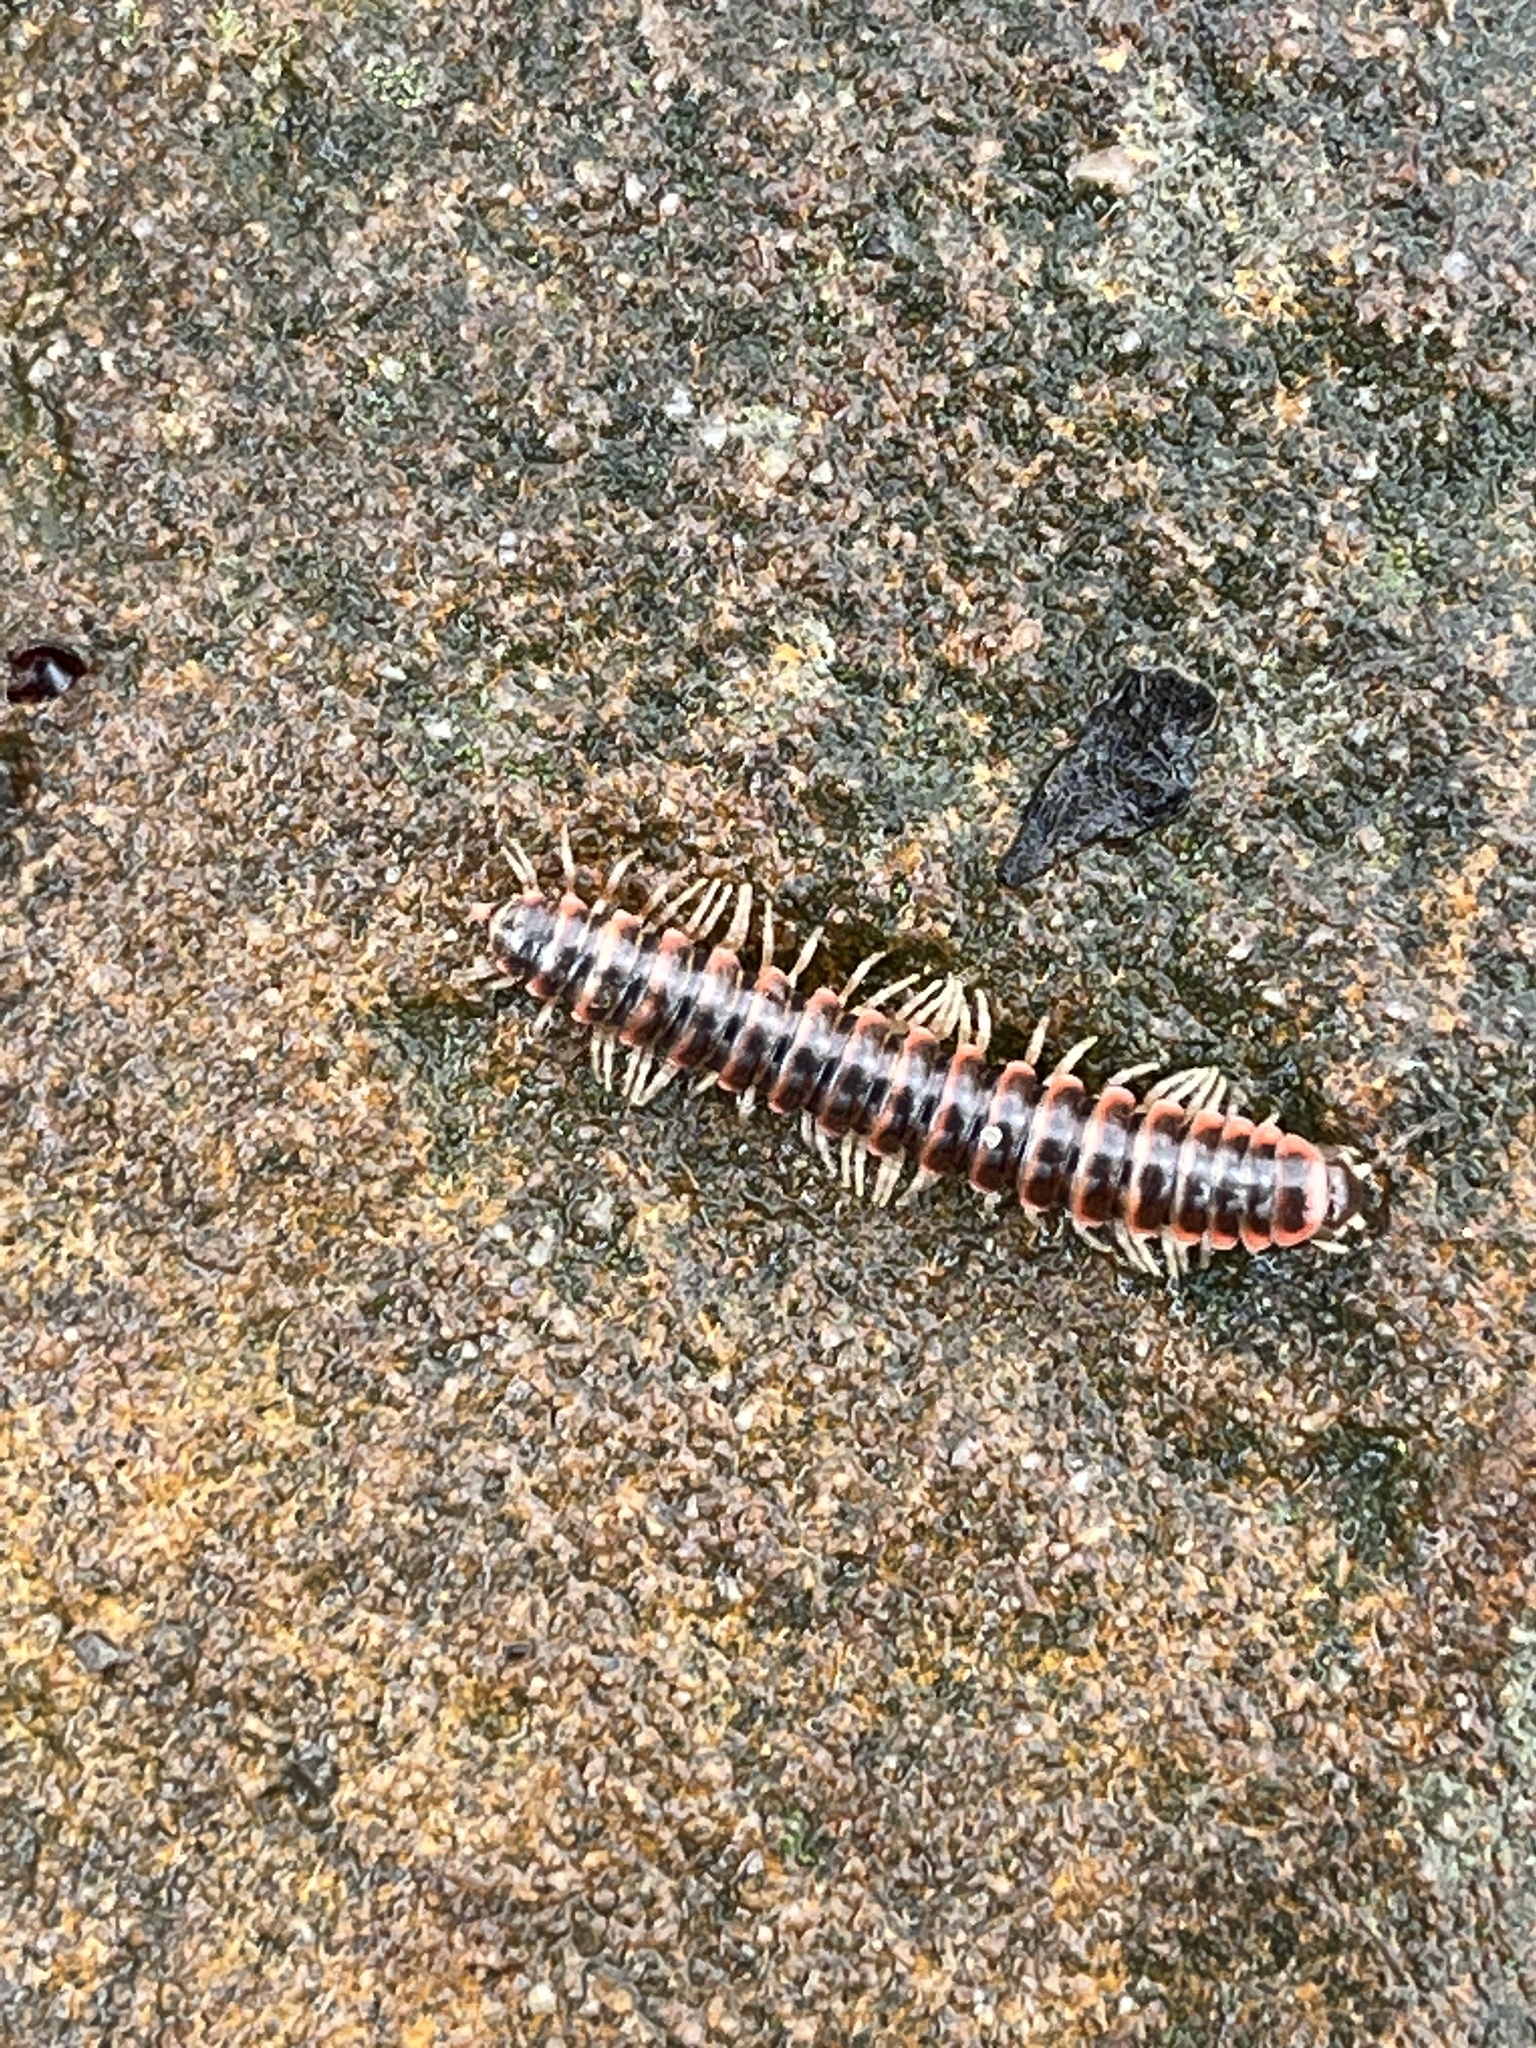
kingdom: Animalia
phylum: Arthropoda
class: Diplopoda
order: Polydesmida
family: Xystodesmidae
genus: Semionellus
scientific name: Semionellus placidus
